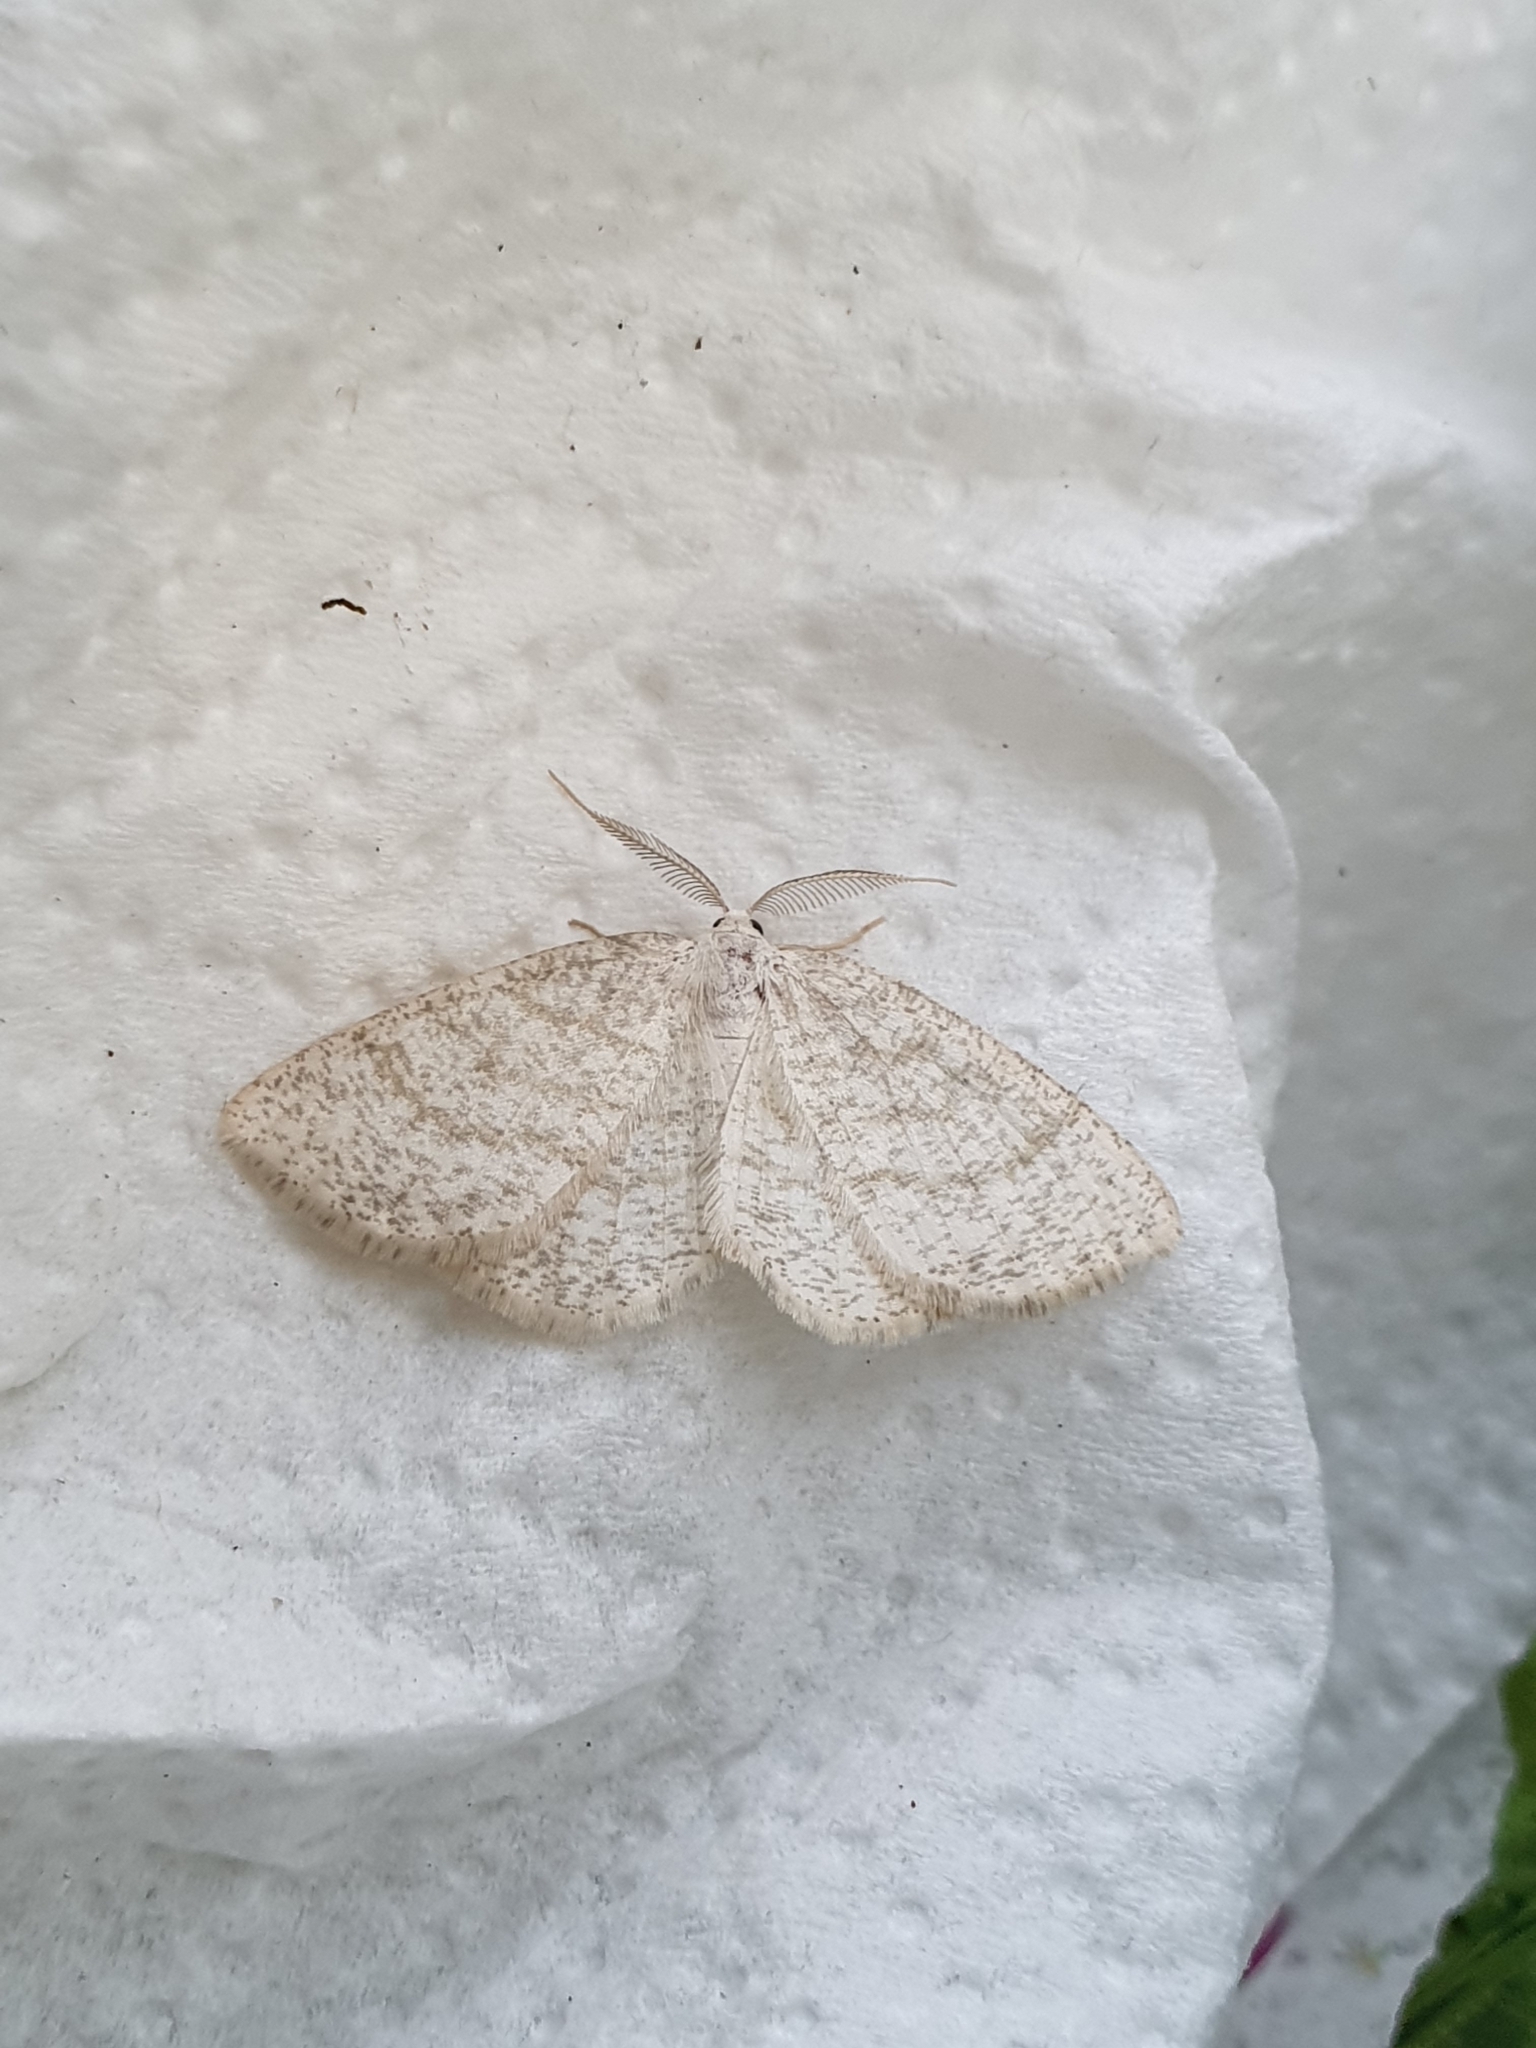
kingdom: Animalia
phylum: Arthropoda
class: Insecta
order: Lepidoptera
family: Geometridae
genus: Cabera
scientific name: Cabera exanthemata
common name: Common wave
